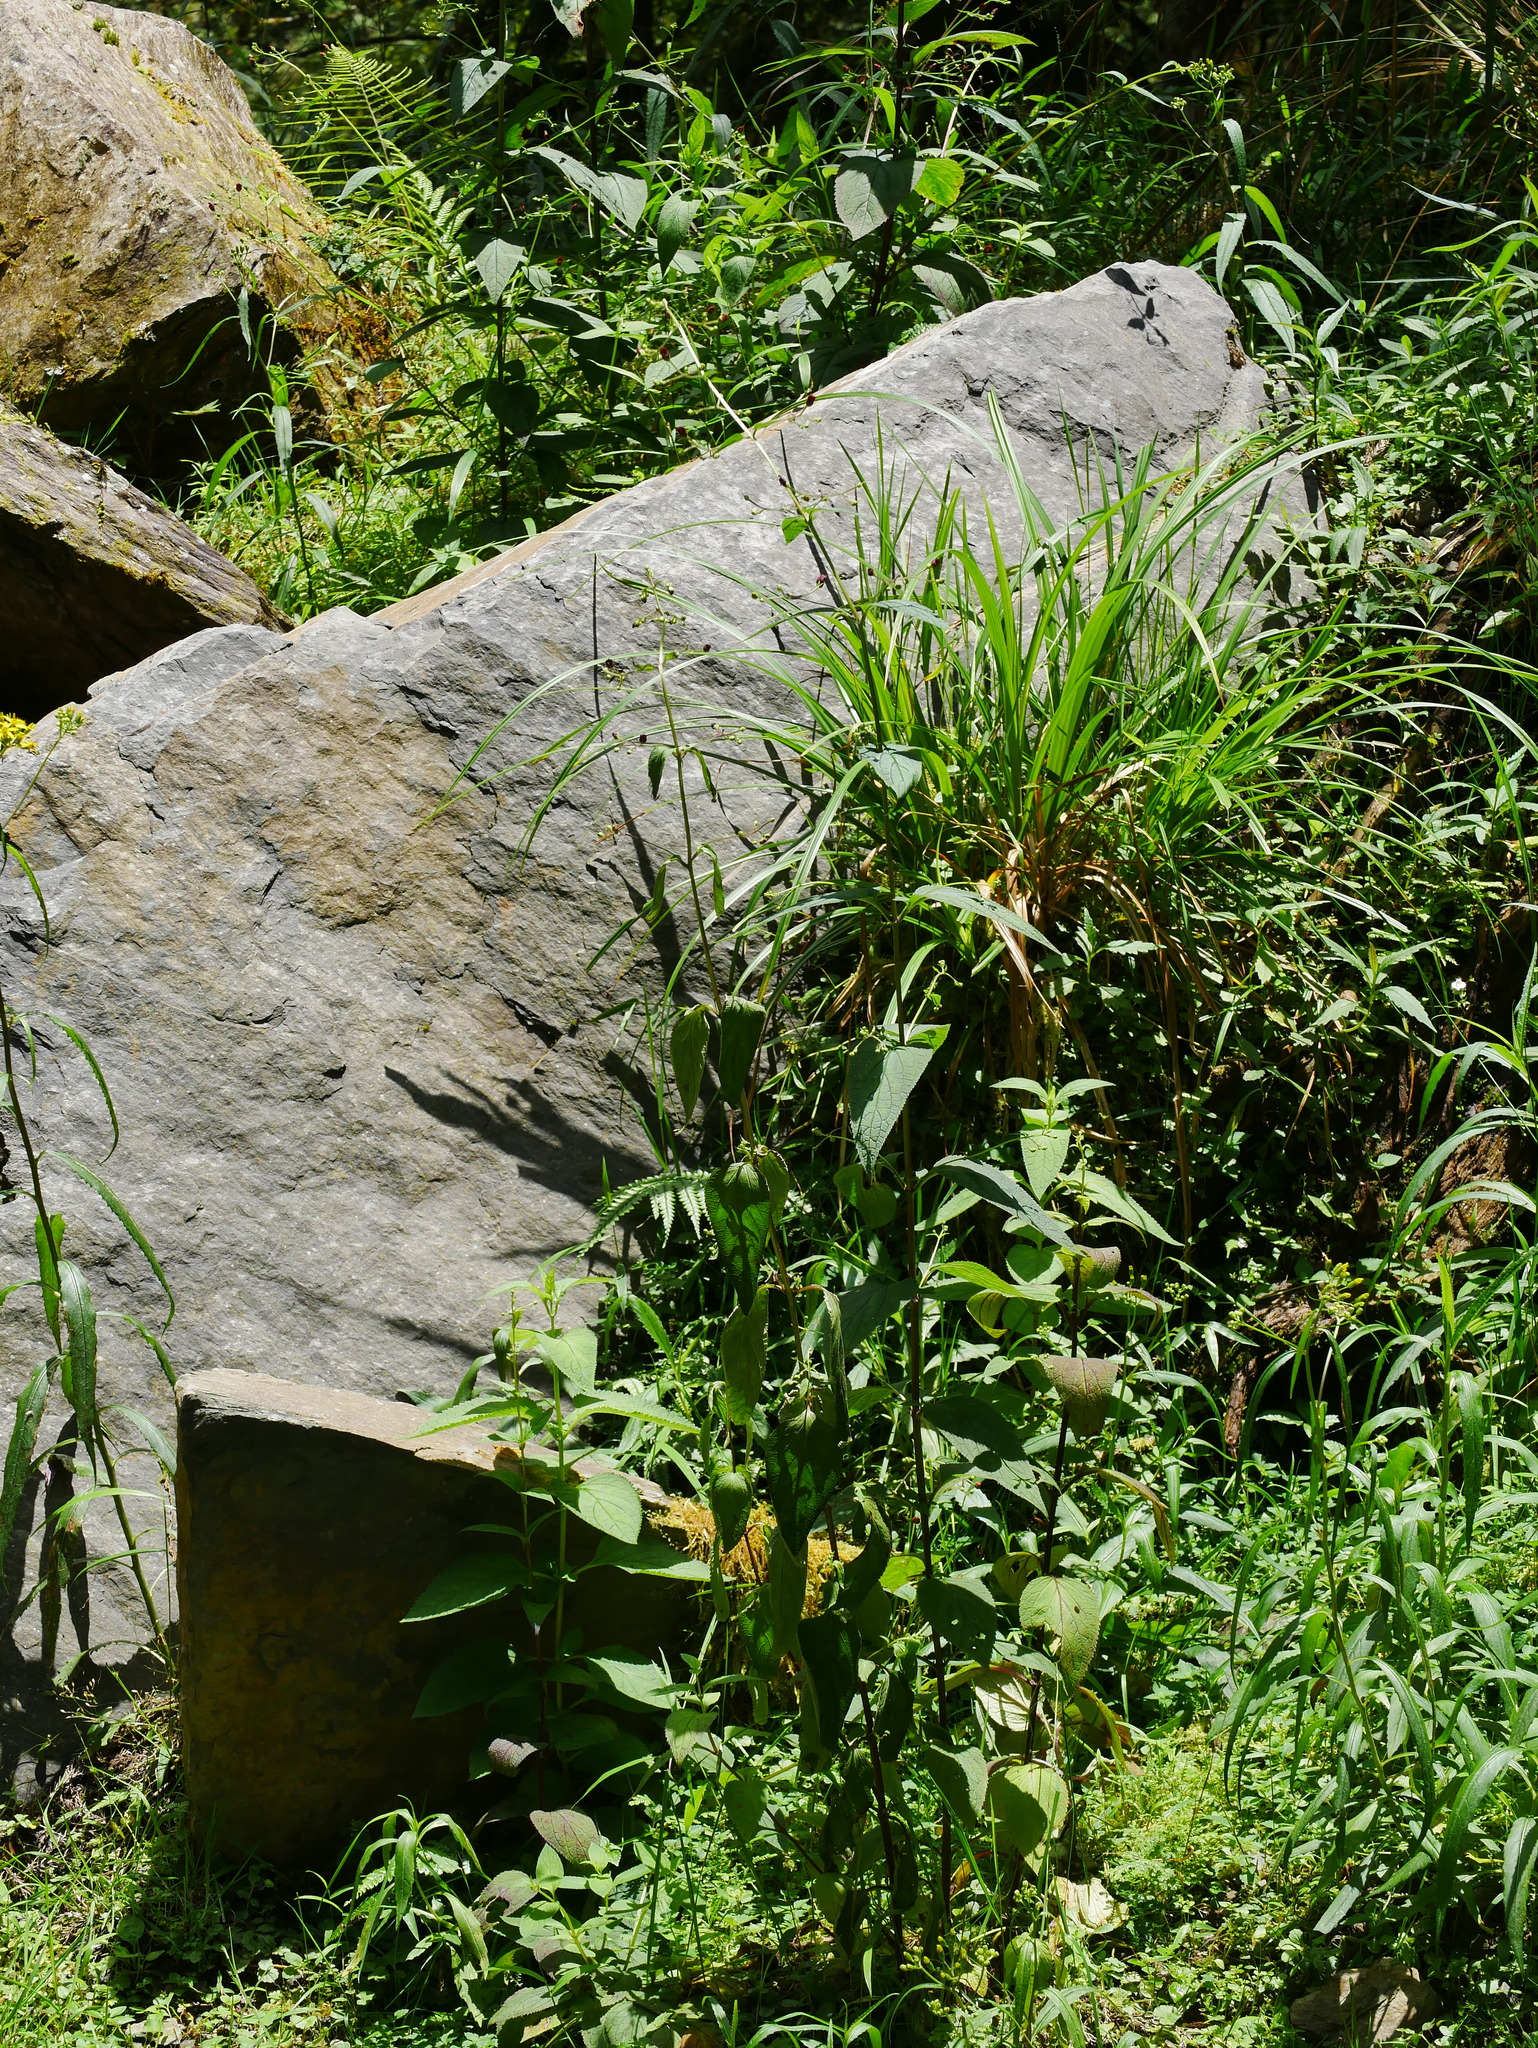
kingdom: Plantae
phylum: Tracheophyta
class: Magnoliopsida
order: Lamiales
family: Scrophulariaceae
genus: Scrophularia
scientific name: Scrophularia yoshimurae
